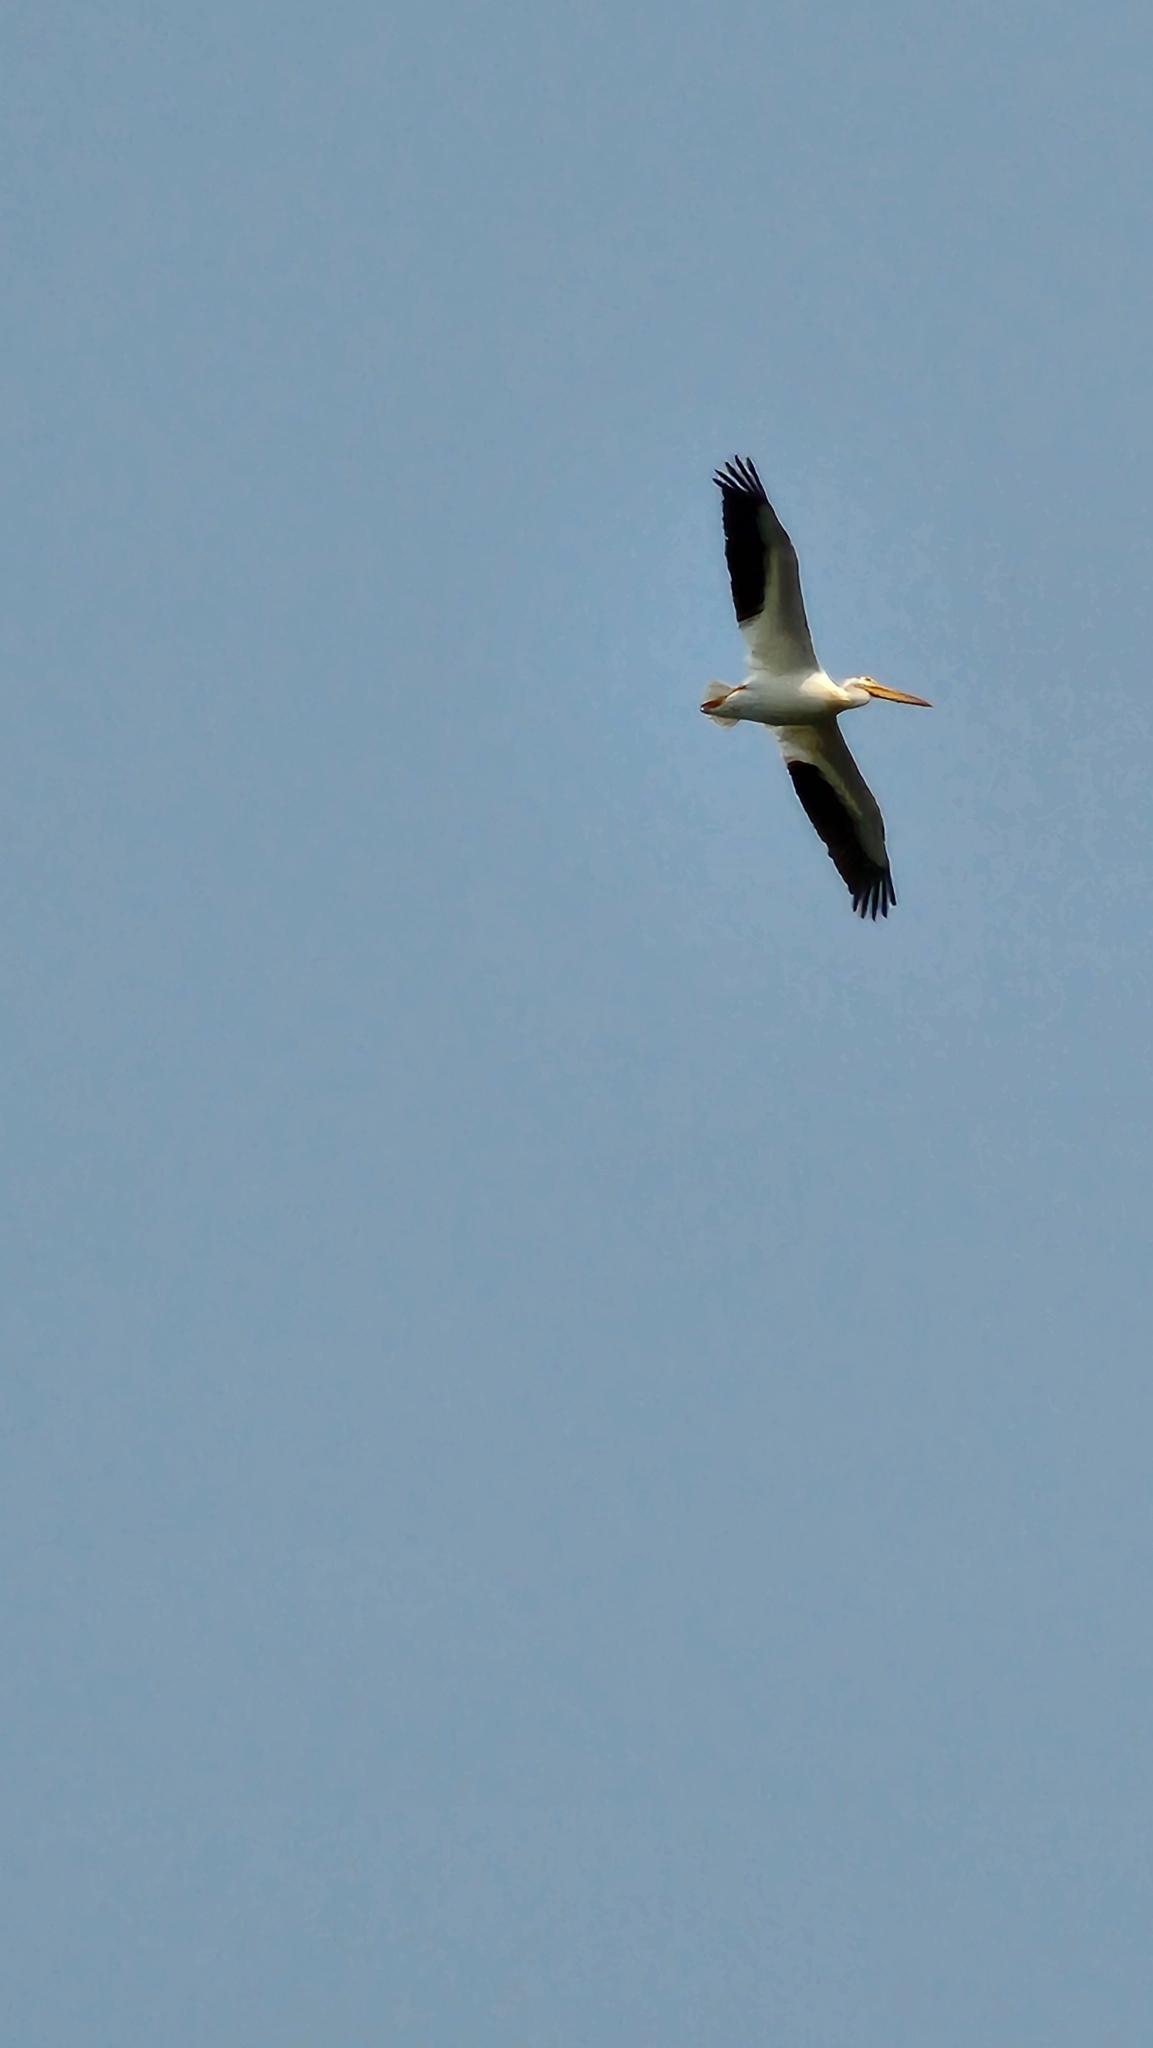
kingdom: Animalia
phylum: Chordata
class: Aves
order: Pelecaniformes
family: Pelecanidae
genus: Pelecanus
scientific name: Pelecanus erythrorhynchos
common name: American white pelican
